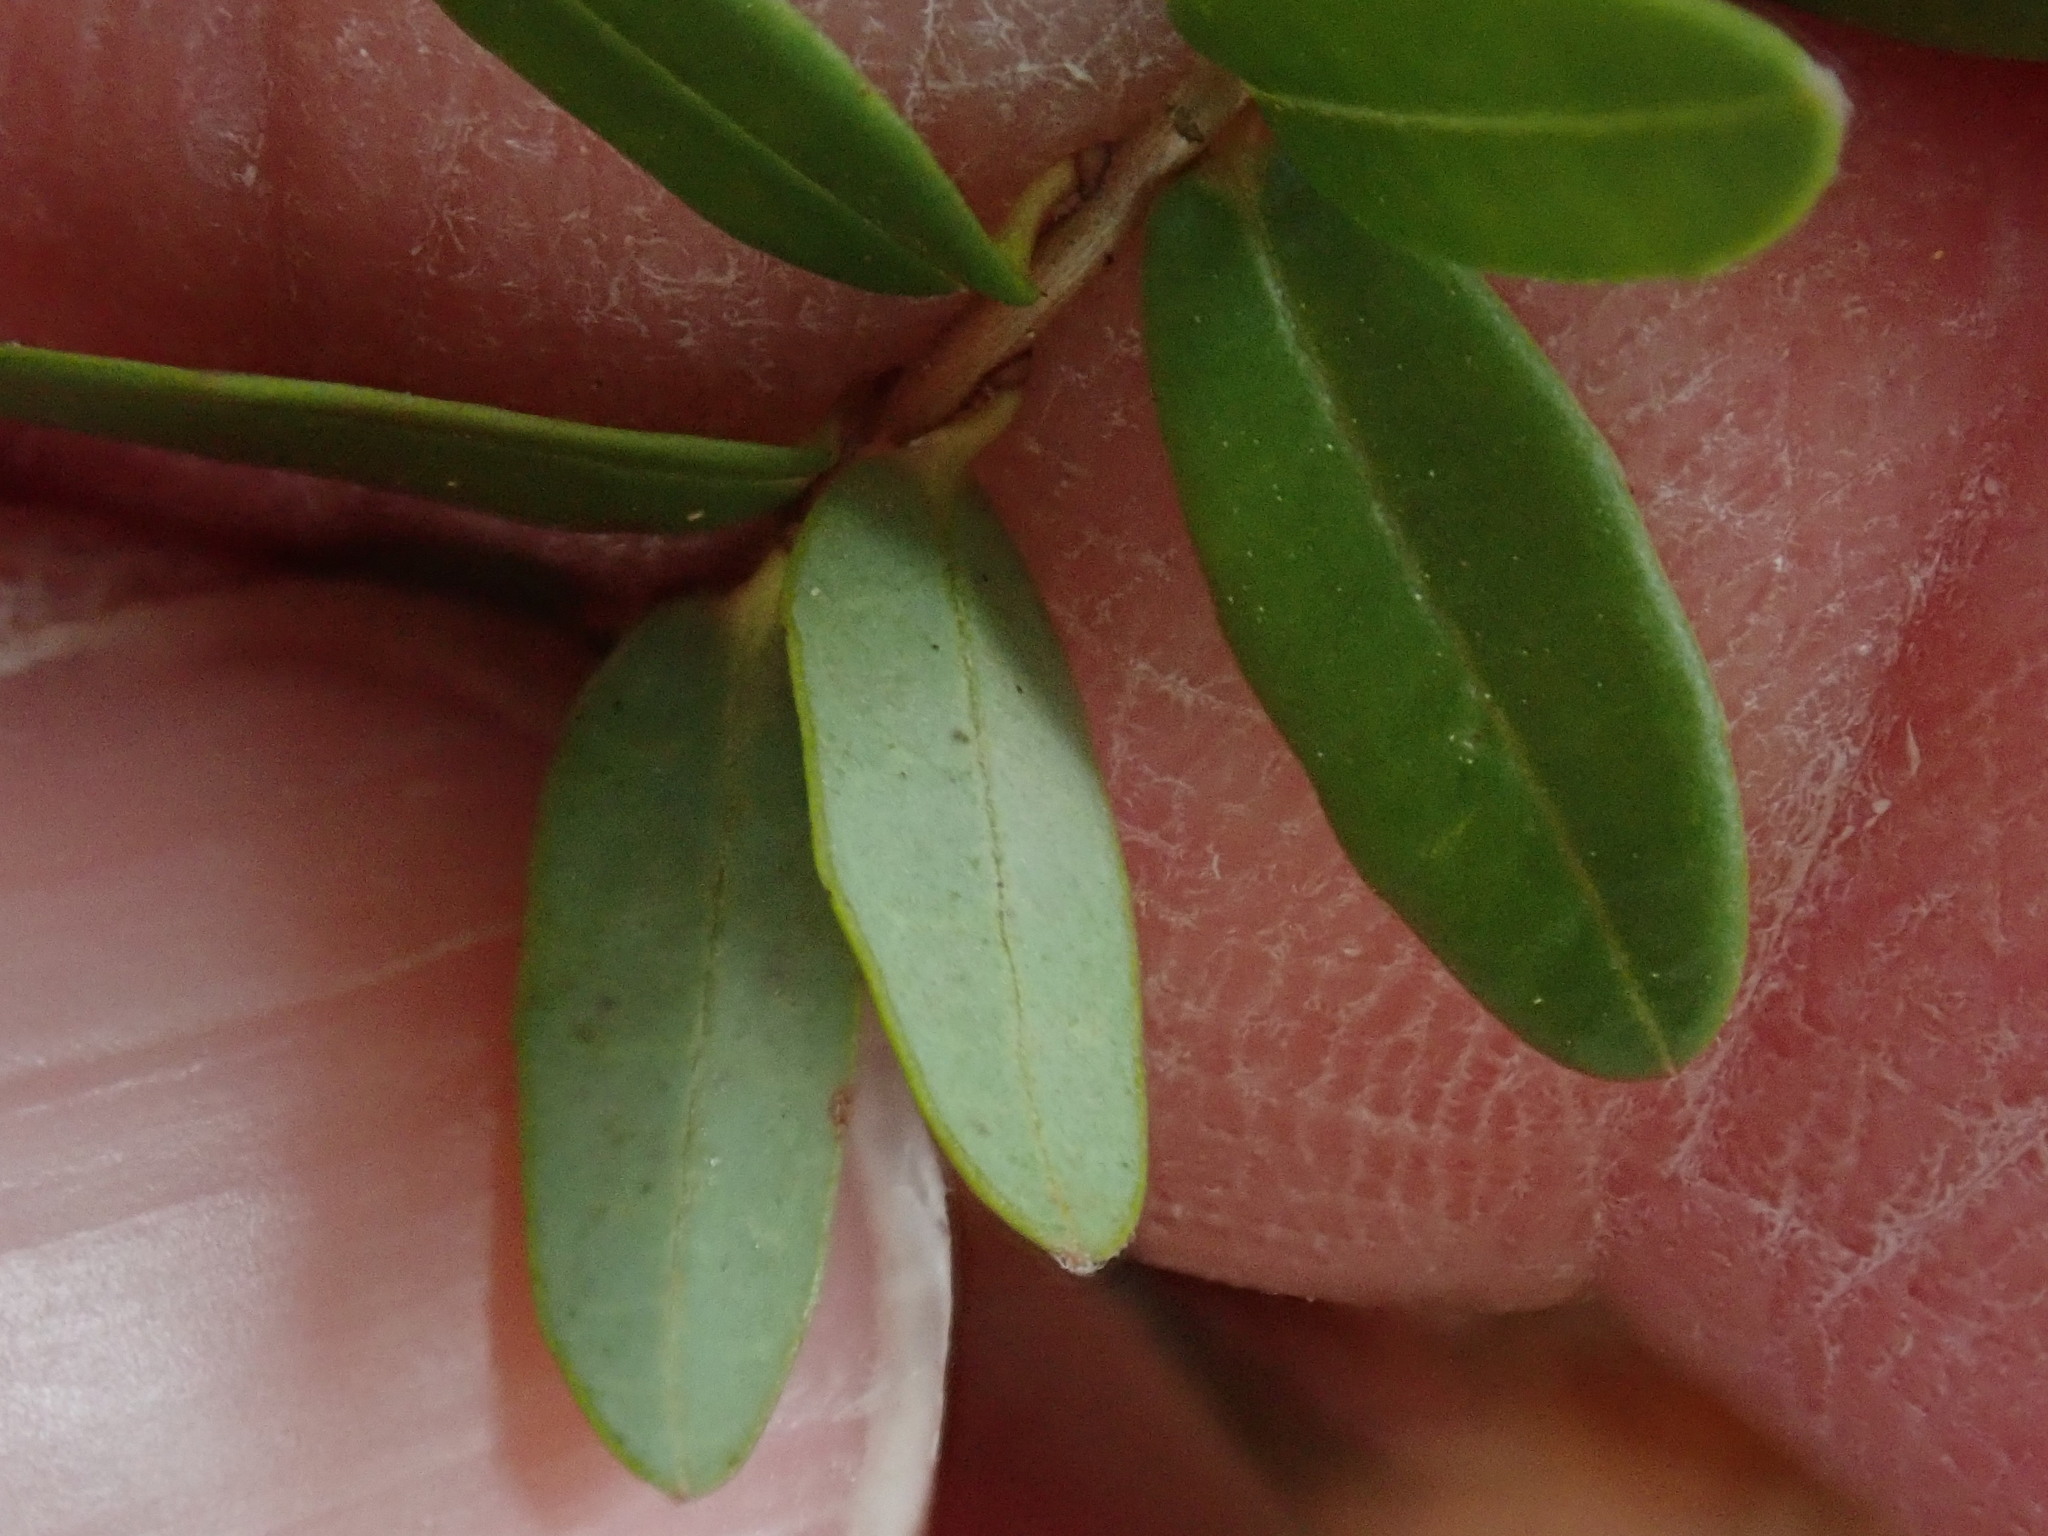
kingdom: Plantae
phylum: Tracheophyta
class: Magnoliopsida
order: Ericales
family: Ericaceae
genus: Vaccinium
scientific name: Vaccinium macrocarpon
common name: American cranberry
